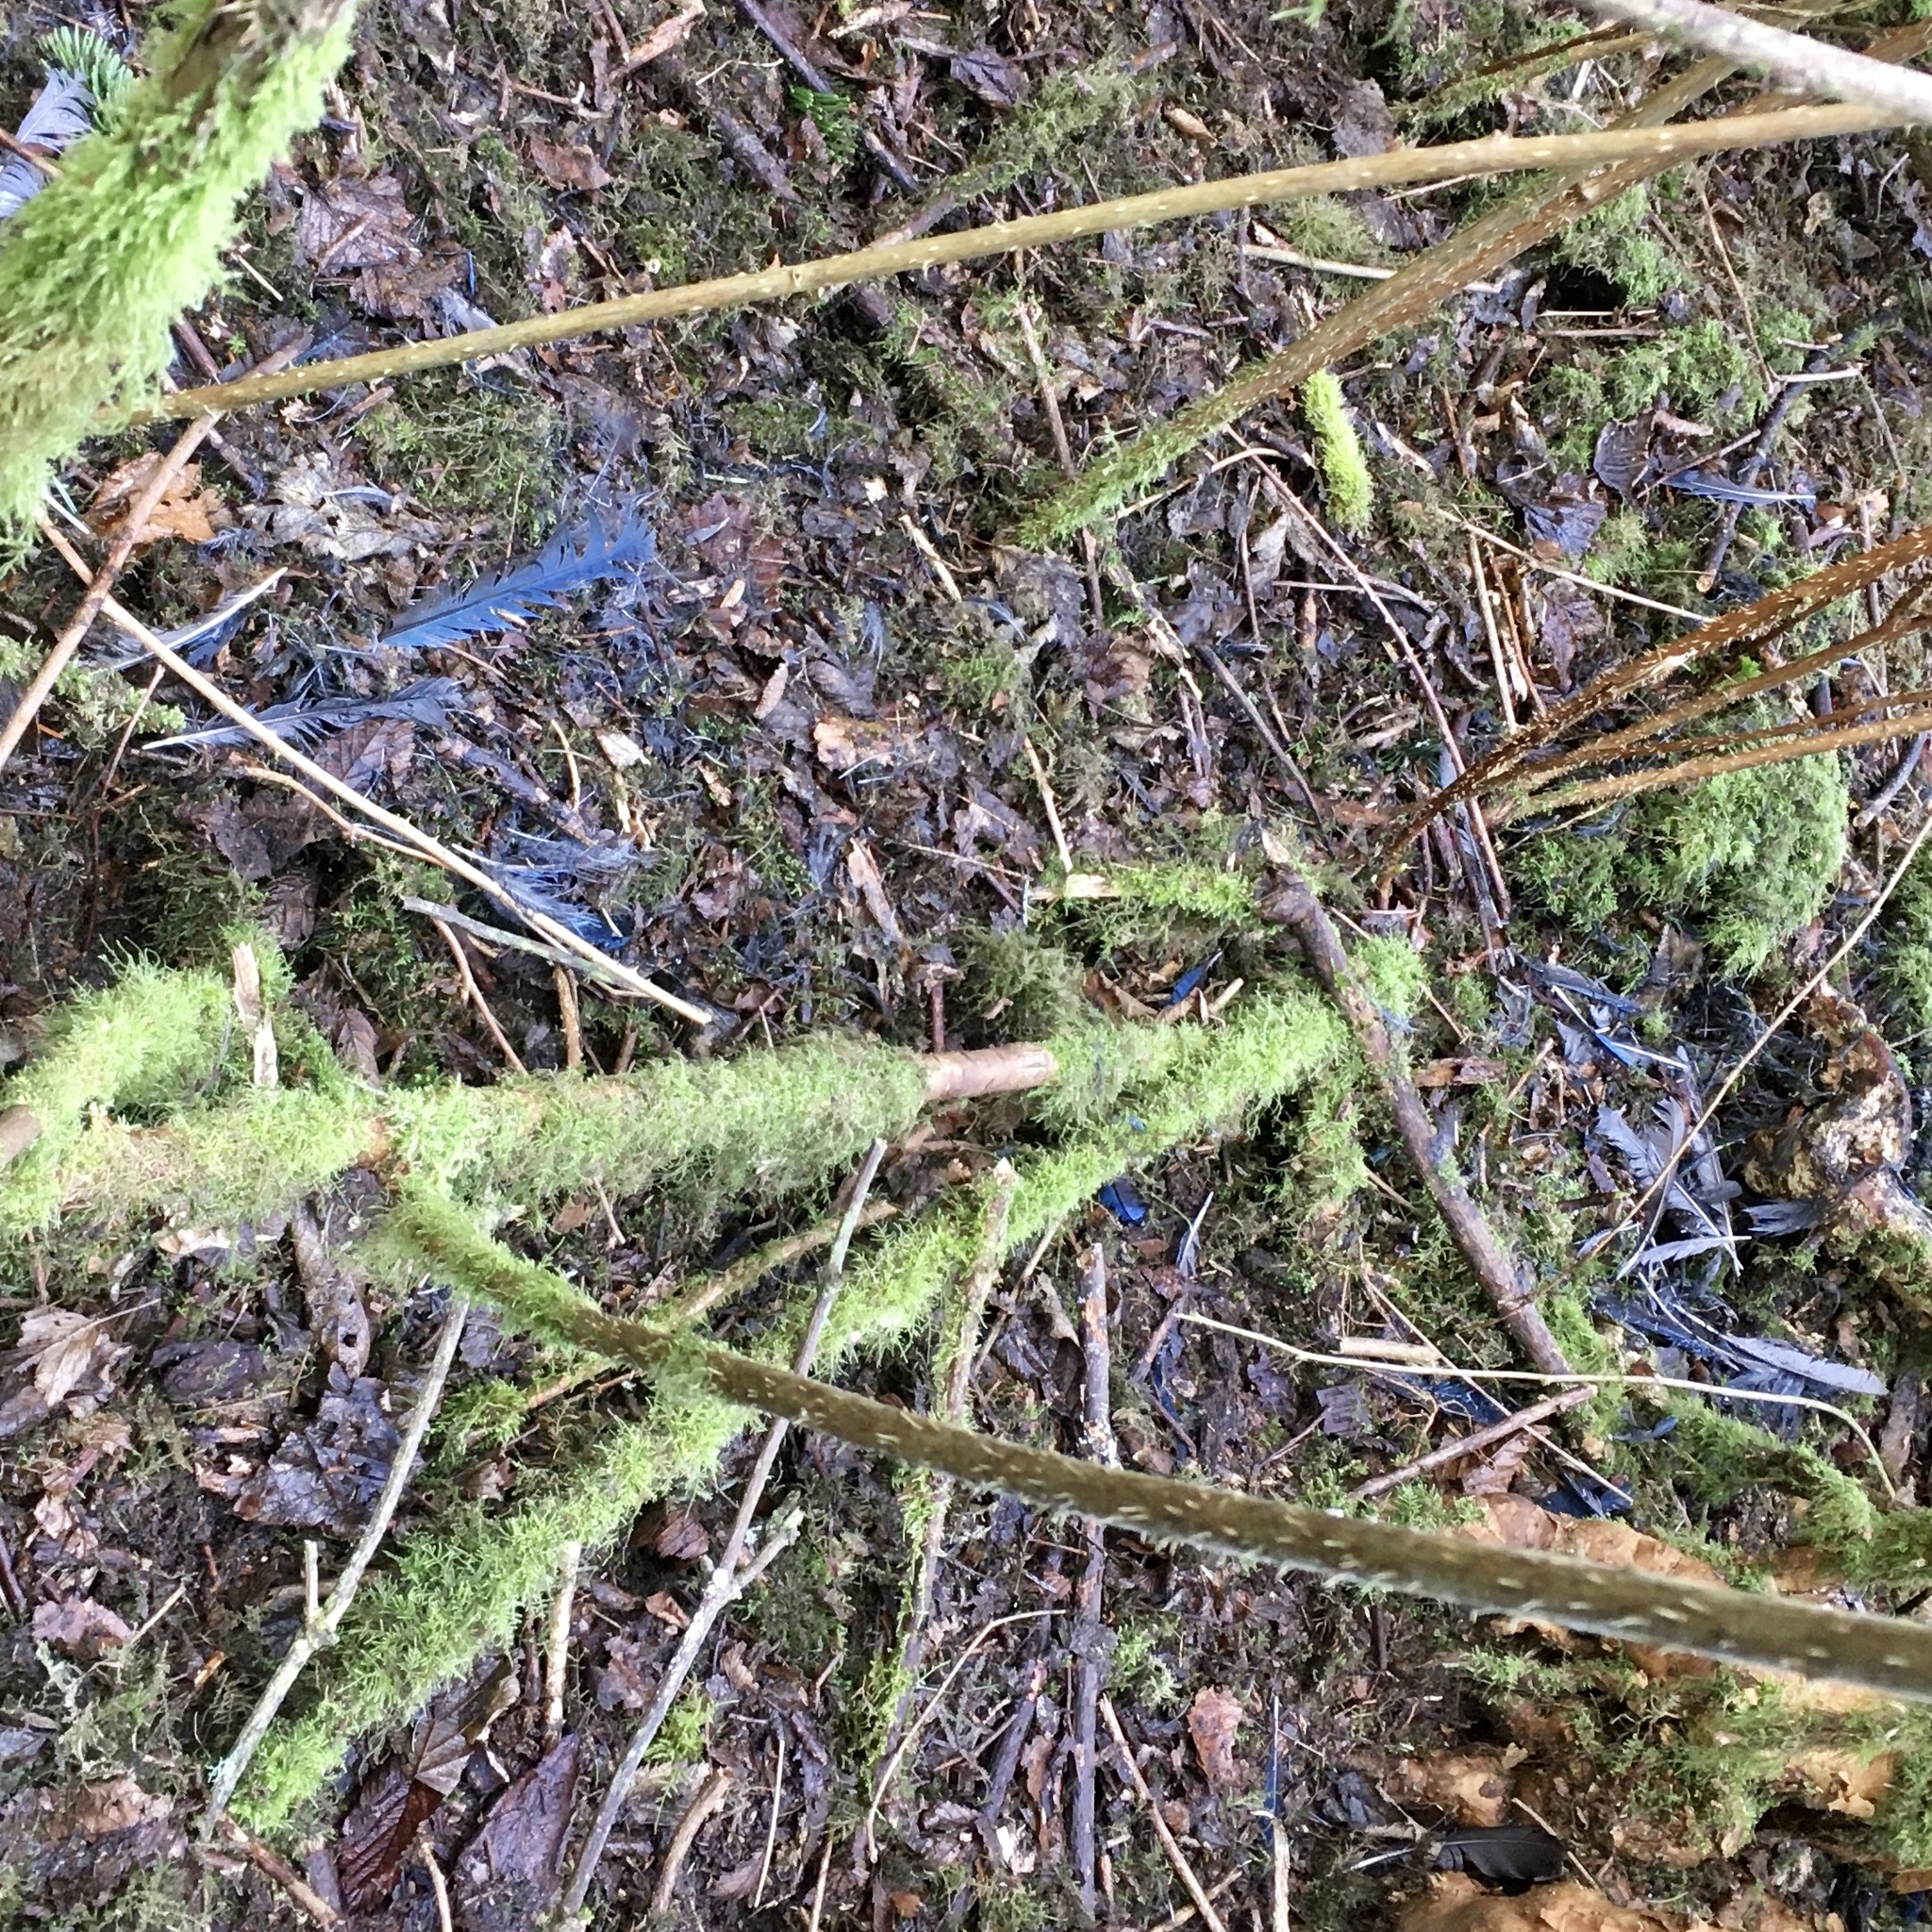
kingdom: Animalia
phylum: Chordata
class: Aves
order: Passeriformes
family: Corvidae
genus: Cyanocitta
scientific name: Cyanocitta stelleri
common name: Steller's jay
